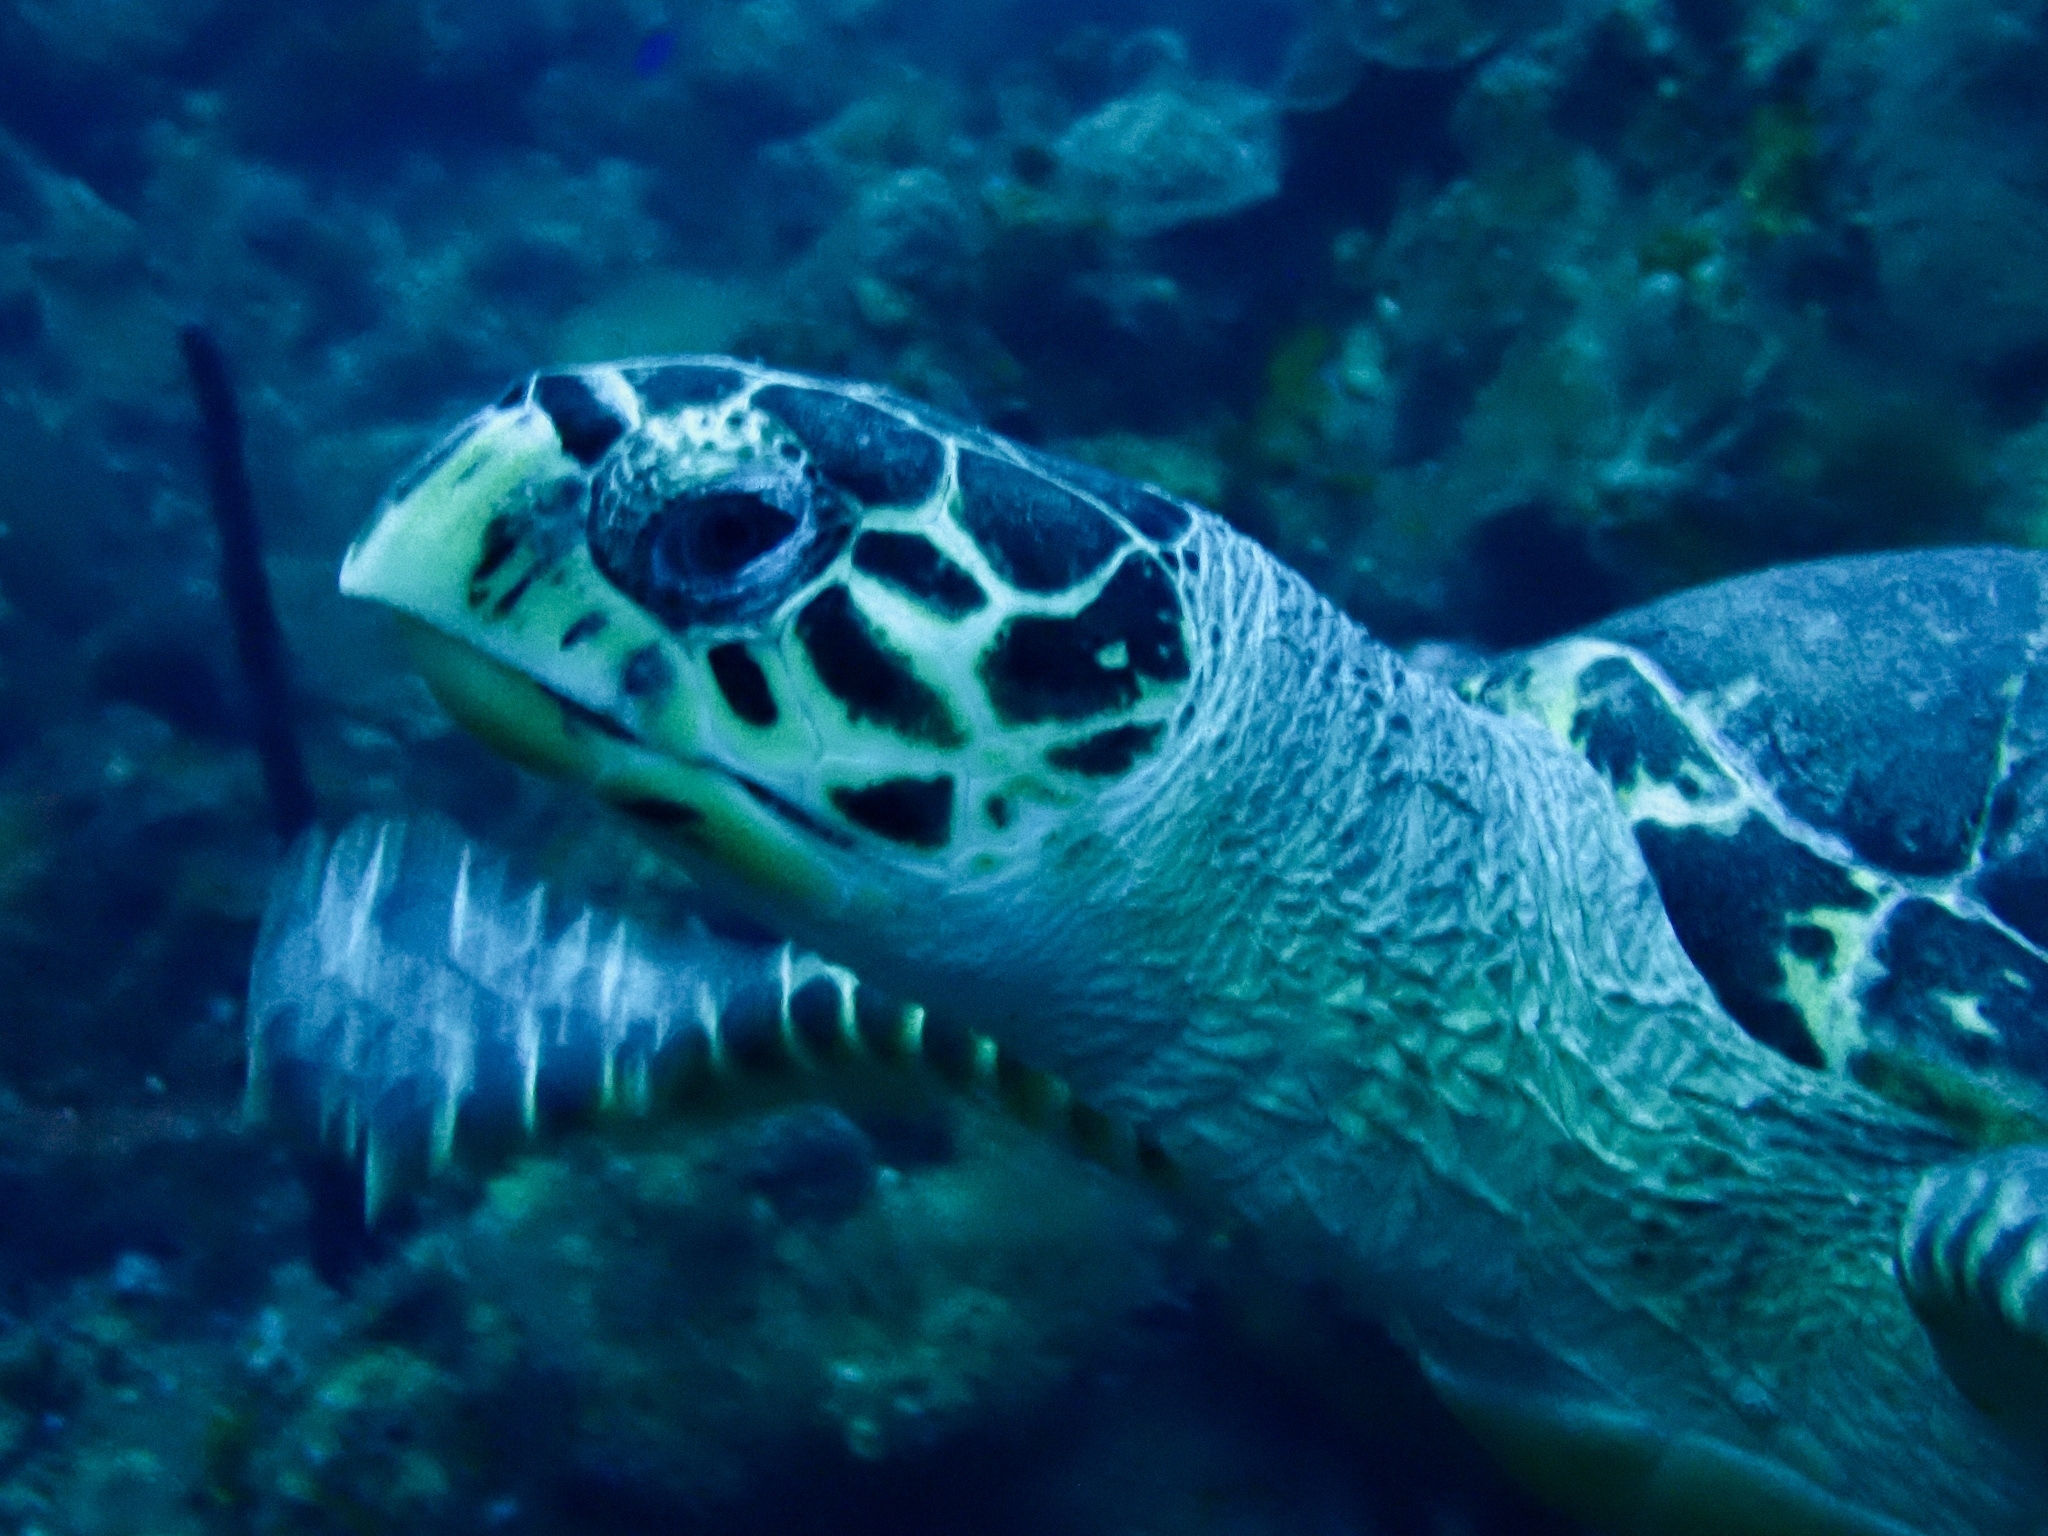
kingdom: Animalia
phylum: Chordata
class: Testudines
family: Cheloniidae
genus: Eretmochelys
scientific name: Eretmochelys imbricata
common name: Hawksbill turtle
